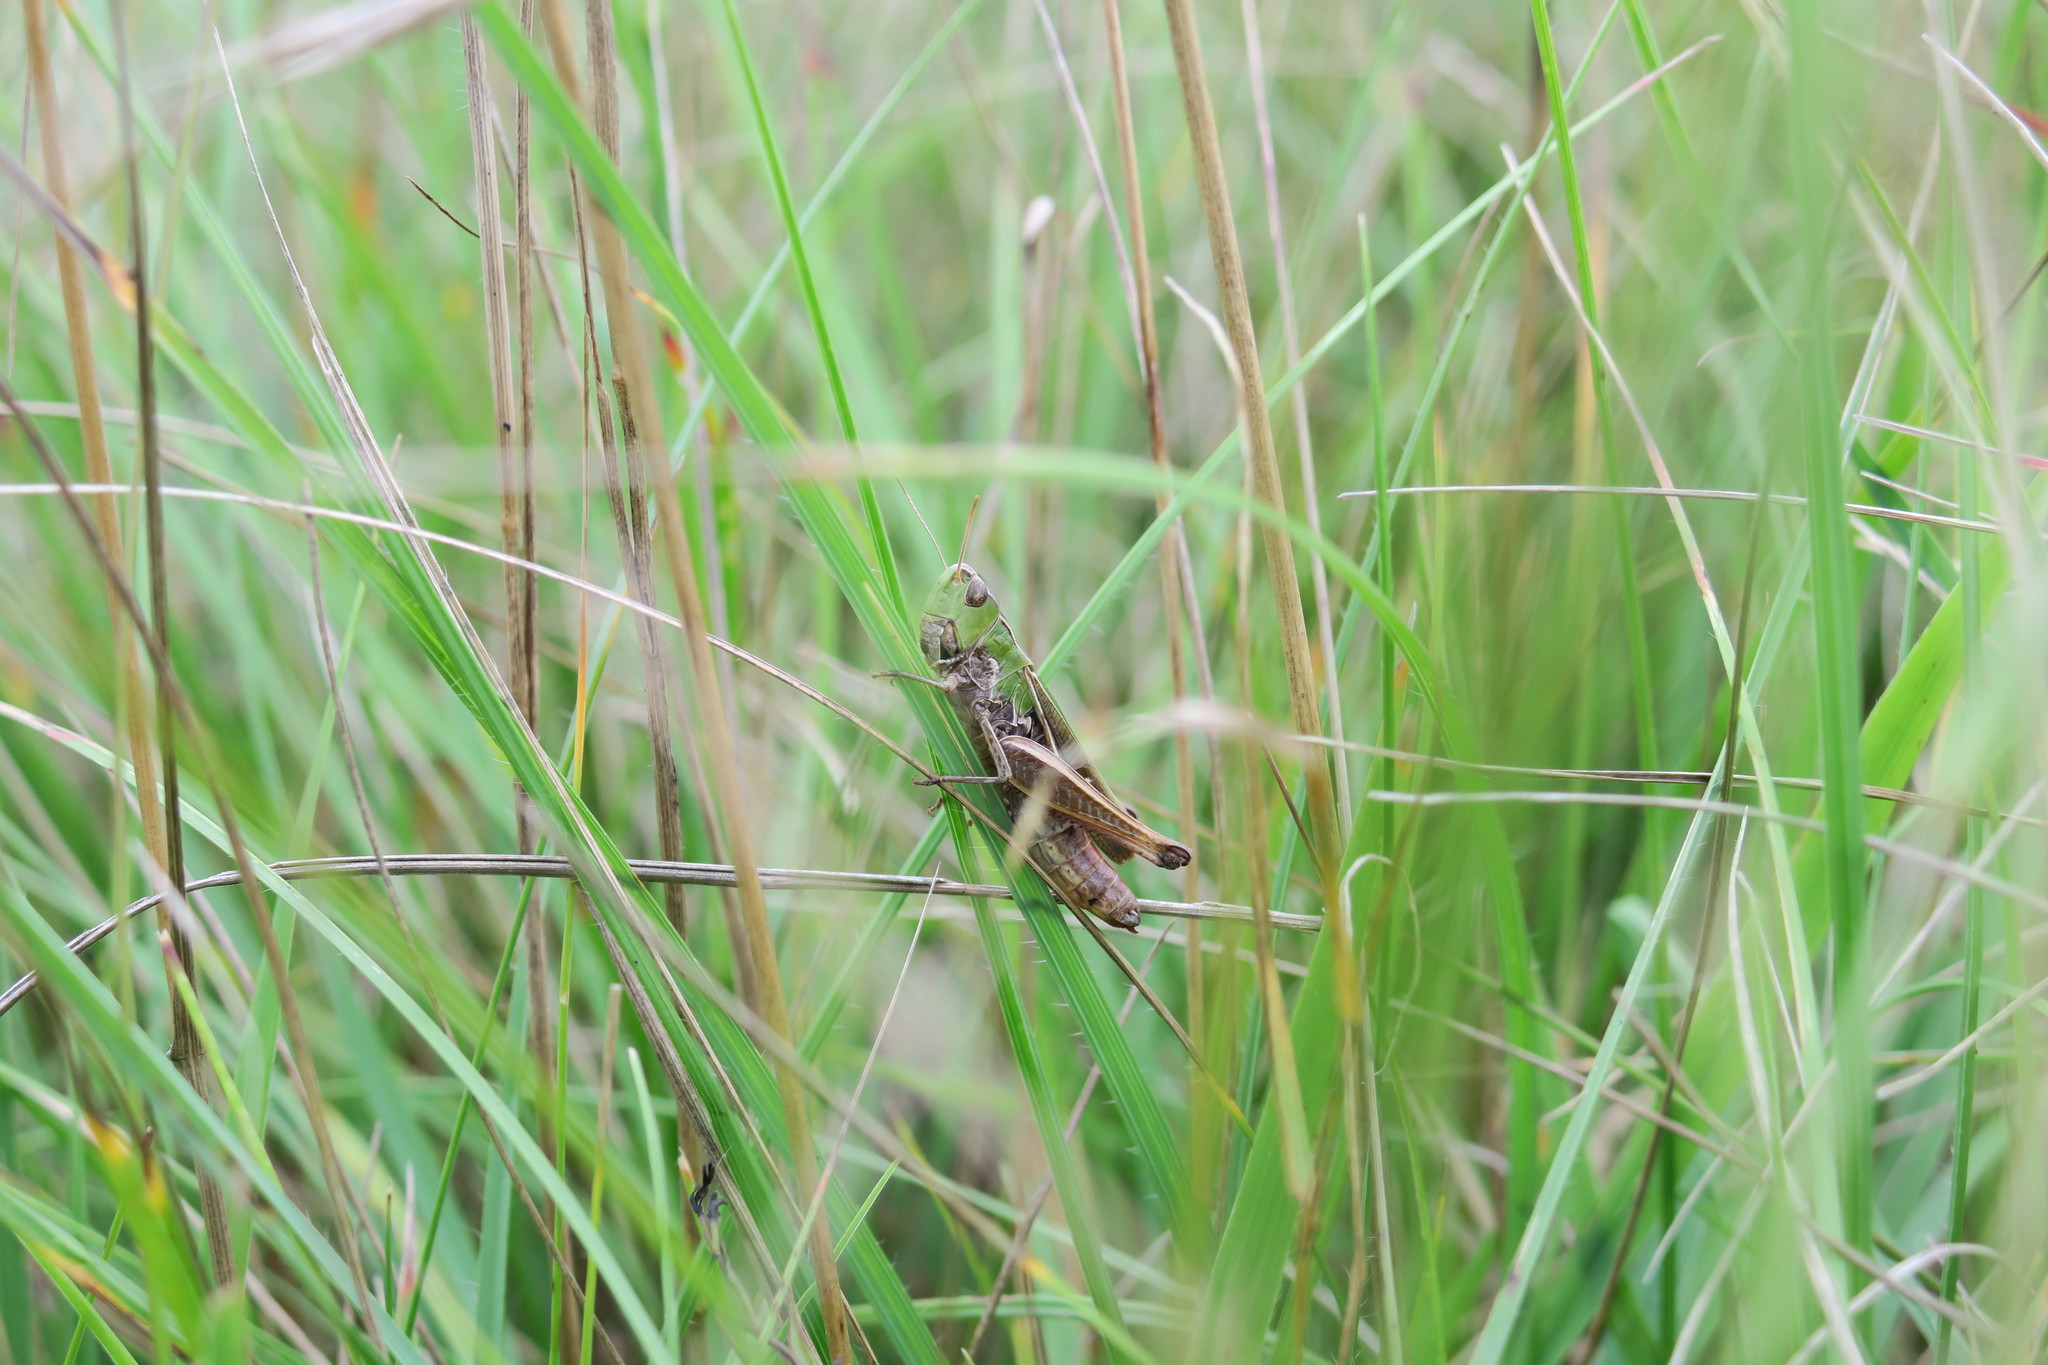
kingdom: Animalia
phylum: Arthropoda
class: Insecta
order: Orthoptera
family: Acrididae
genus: Stenobothrus
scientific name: Stenobothrus lineatus
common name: Stripe-winged grasshopper
